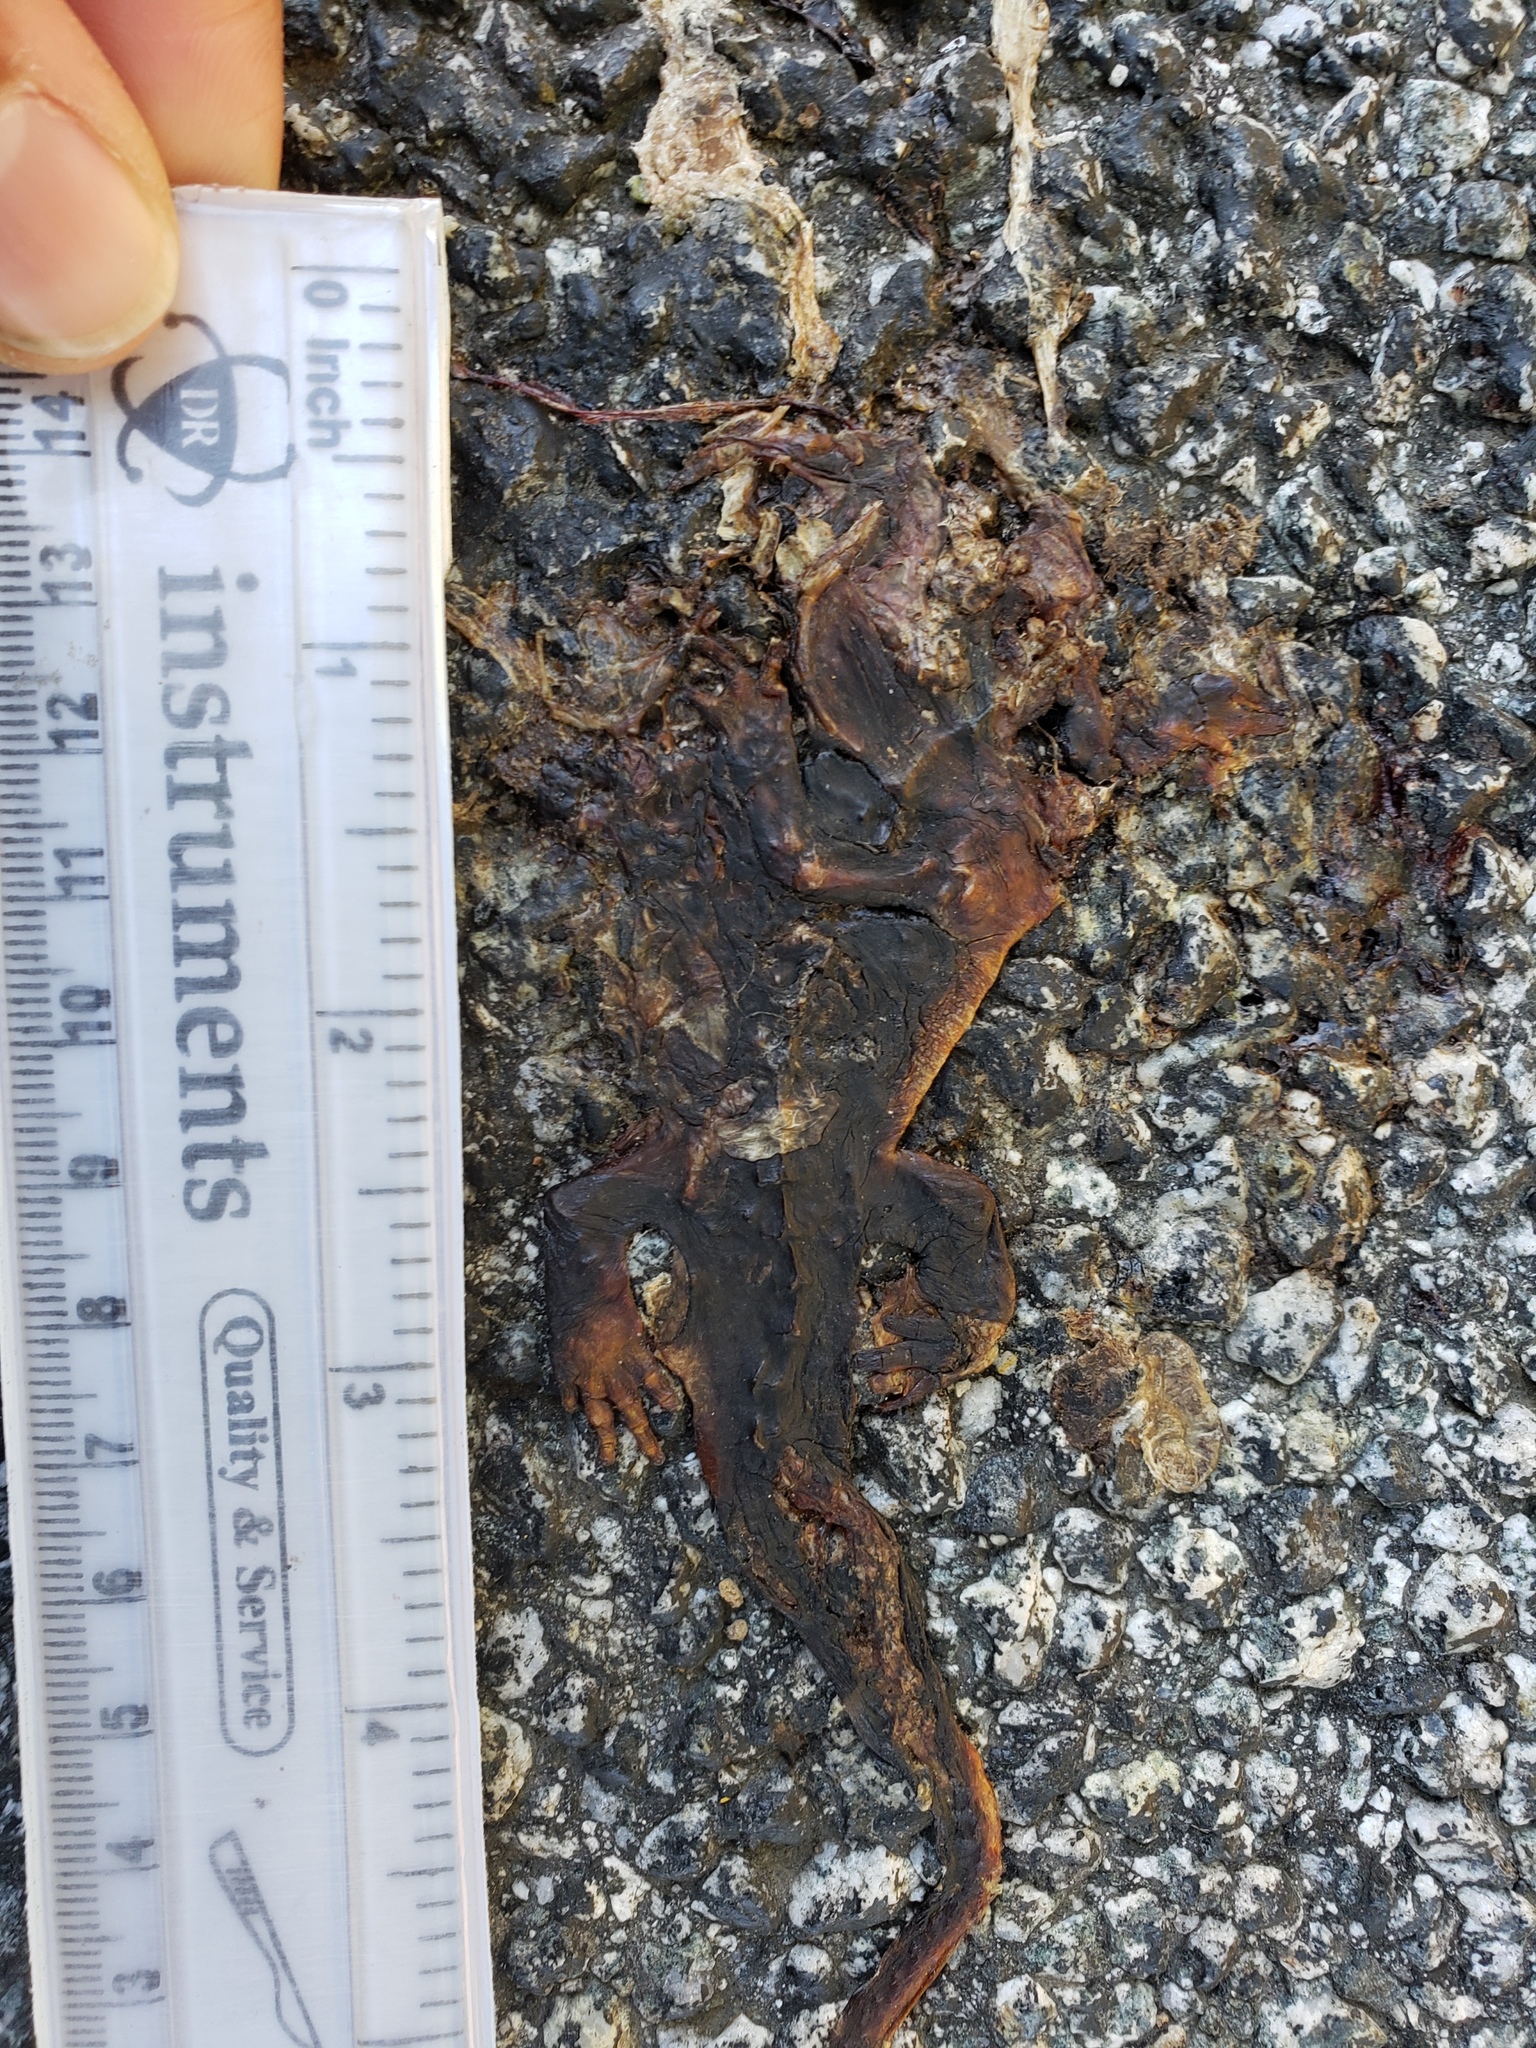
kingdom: Animalia
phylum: Chordata
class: Amphibia
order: Caudata
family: Salamandridae
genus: Taricha
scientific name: Taricha
